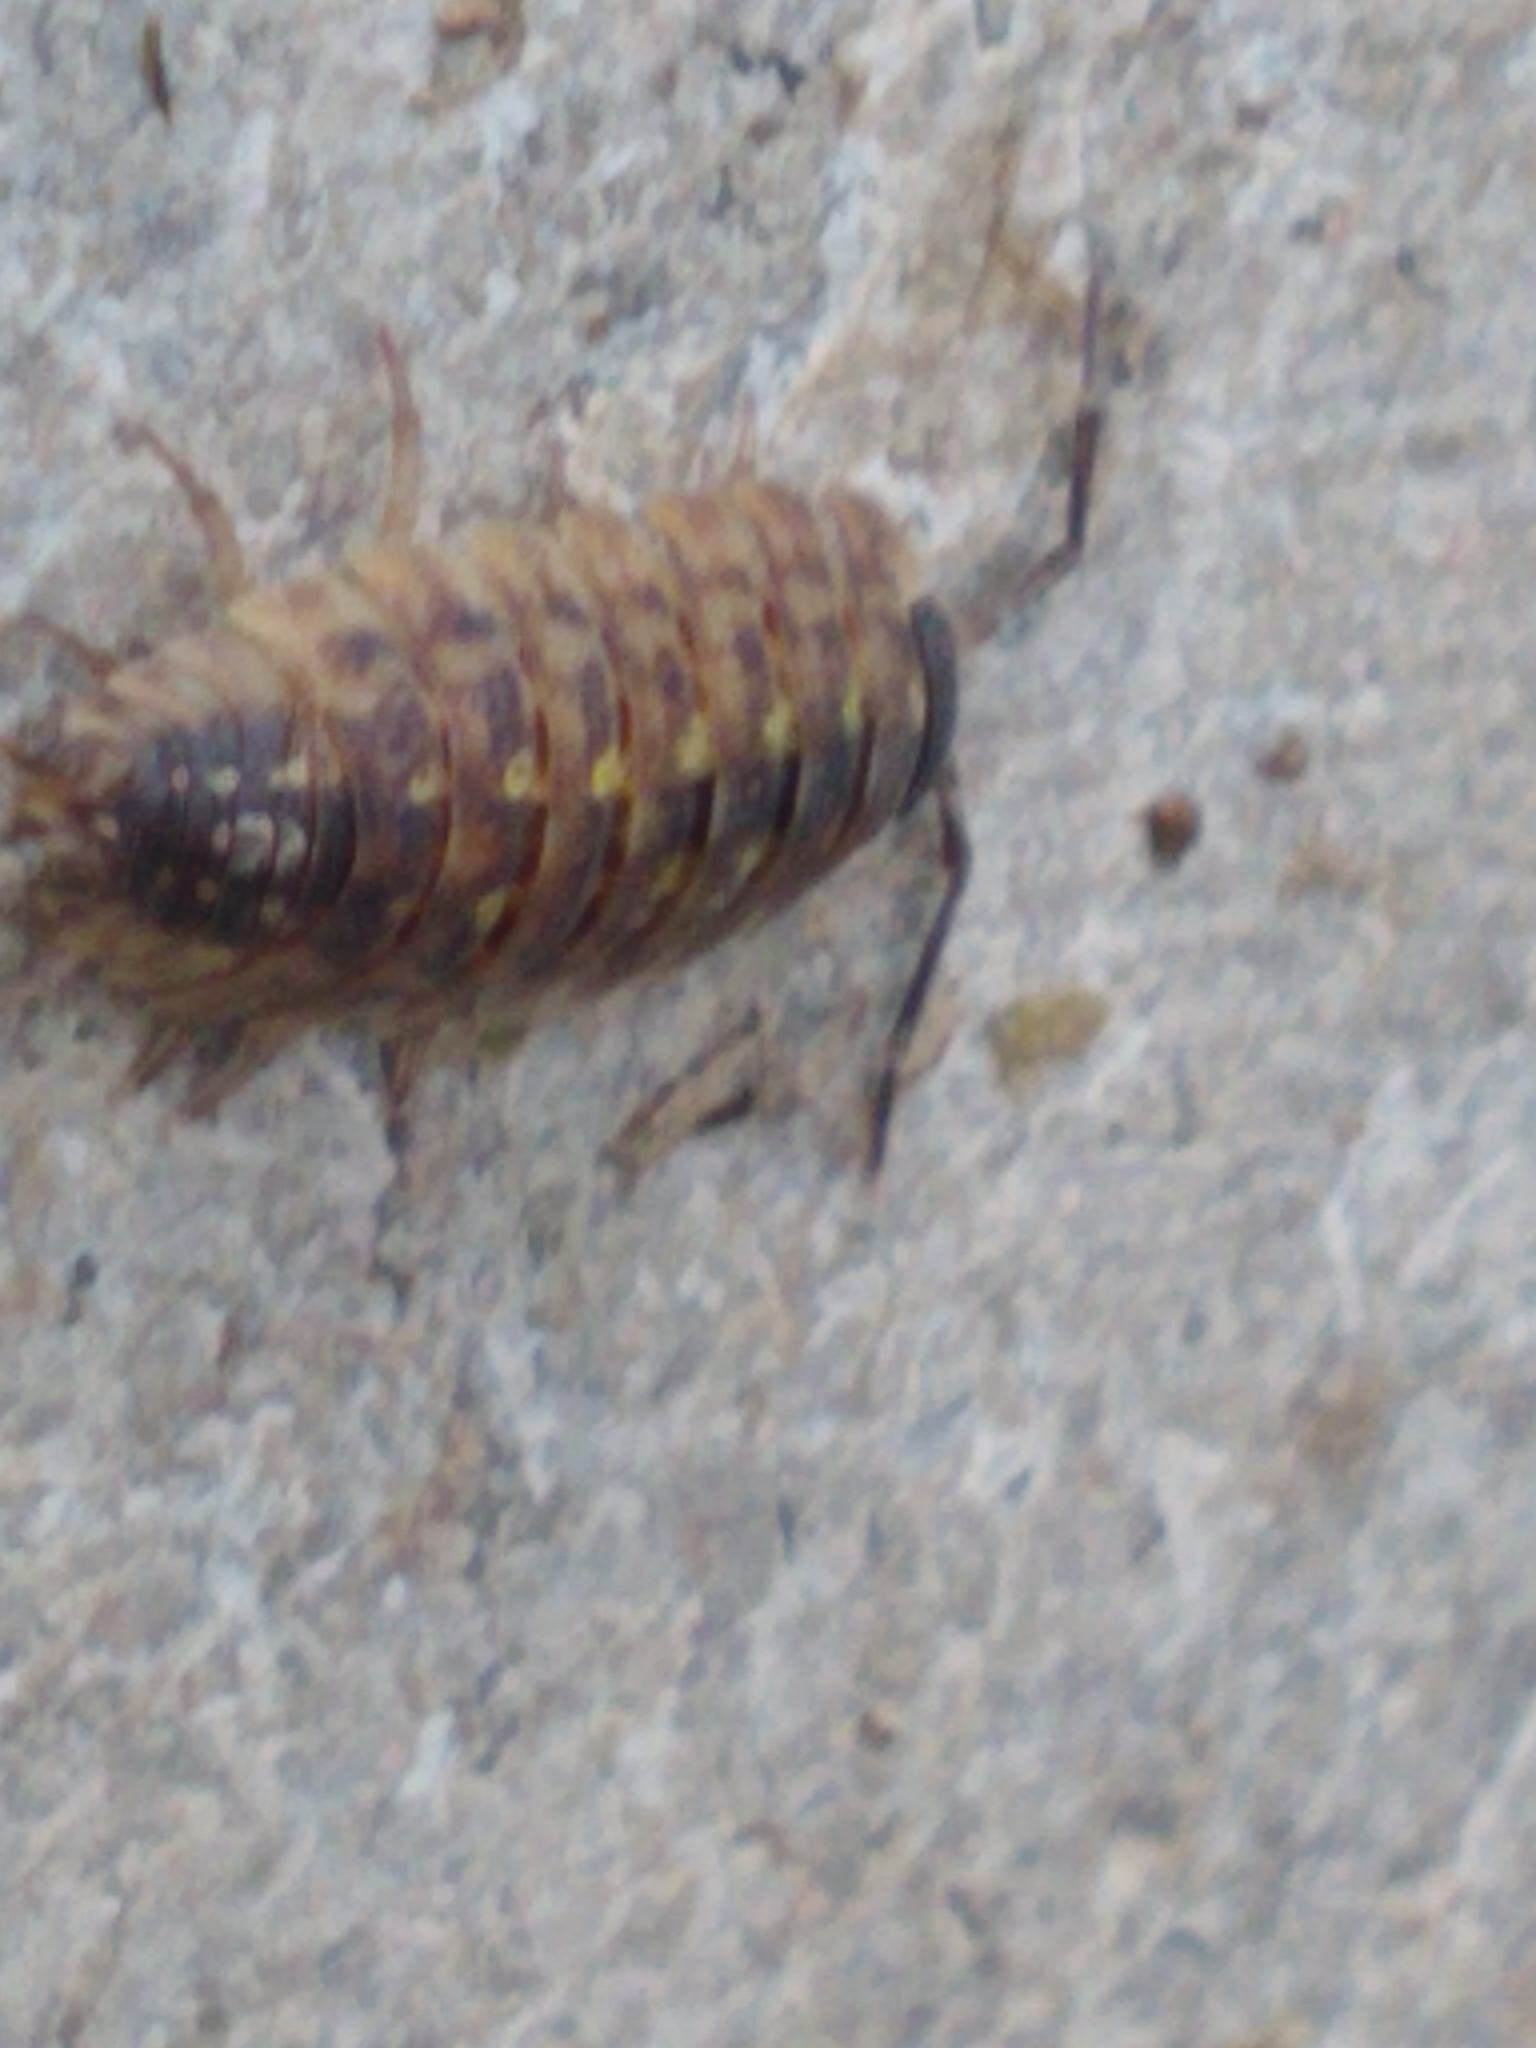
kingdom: Animalia
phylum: Arthropoda
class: Malacostraca
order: Isopoda
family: Porcellionidae
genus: Porcellio
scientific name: Porcellio spinicornis
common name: Painted woodlouse
